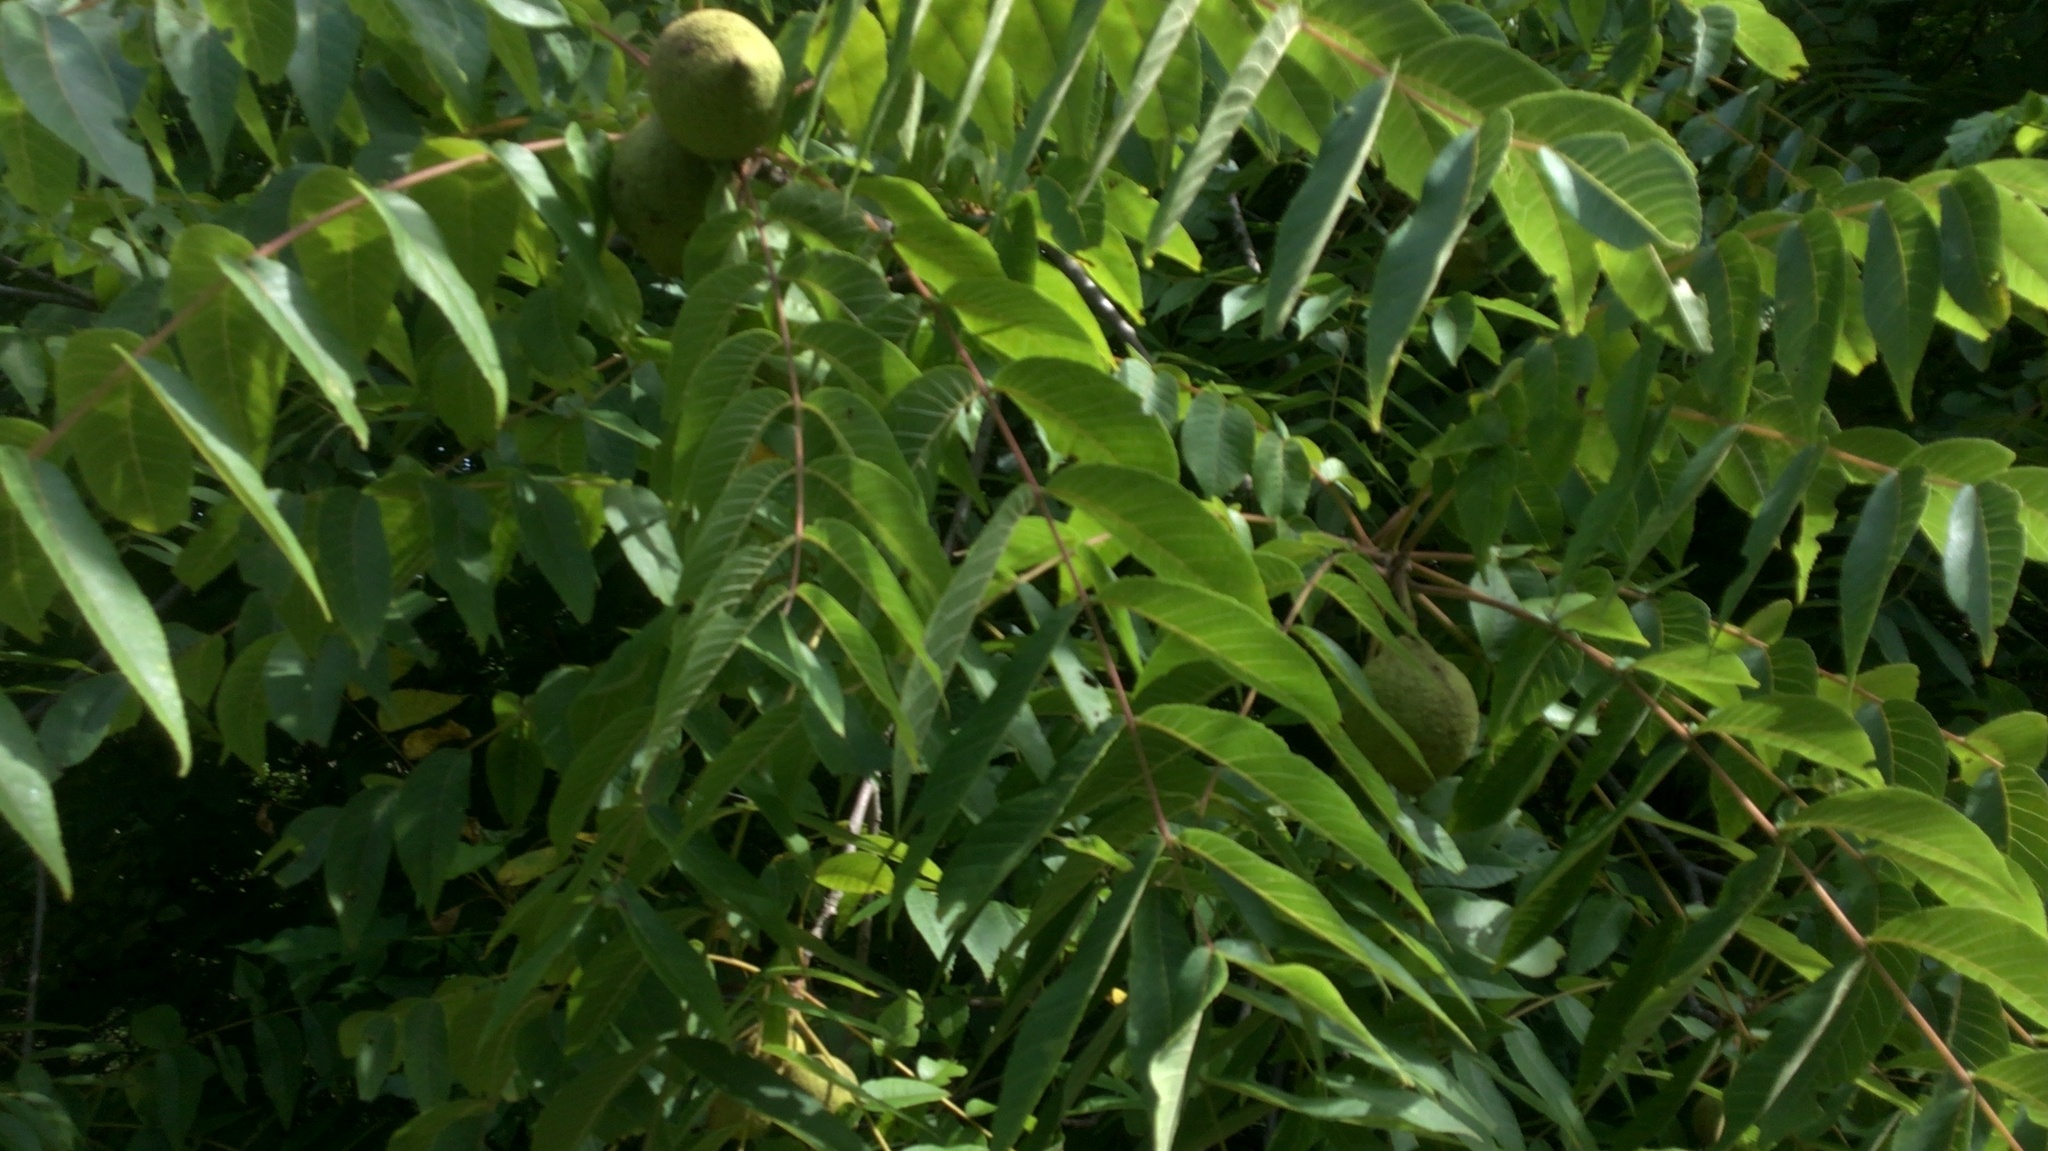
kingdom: Plantae
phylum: Tracheophyta
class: Magnoliopsida
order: Fagales
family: Juglandaceae
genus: Juglans
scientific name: Juglans nigra
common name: Black walnut
